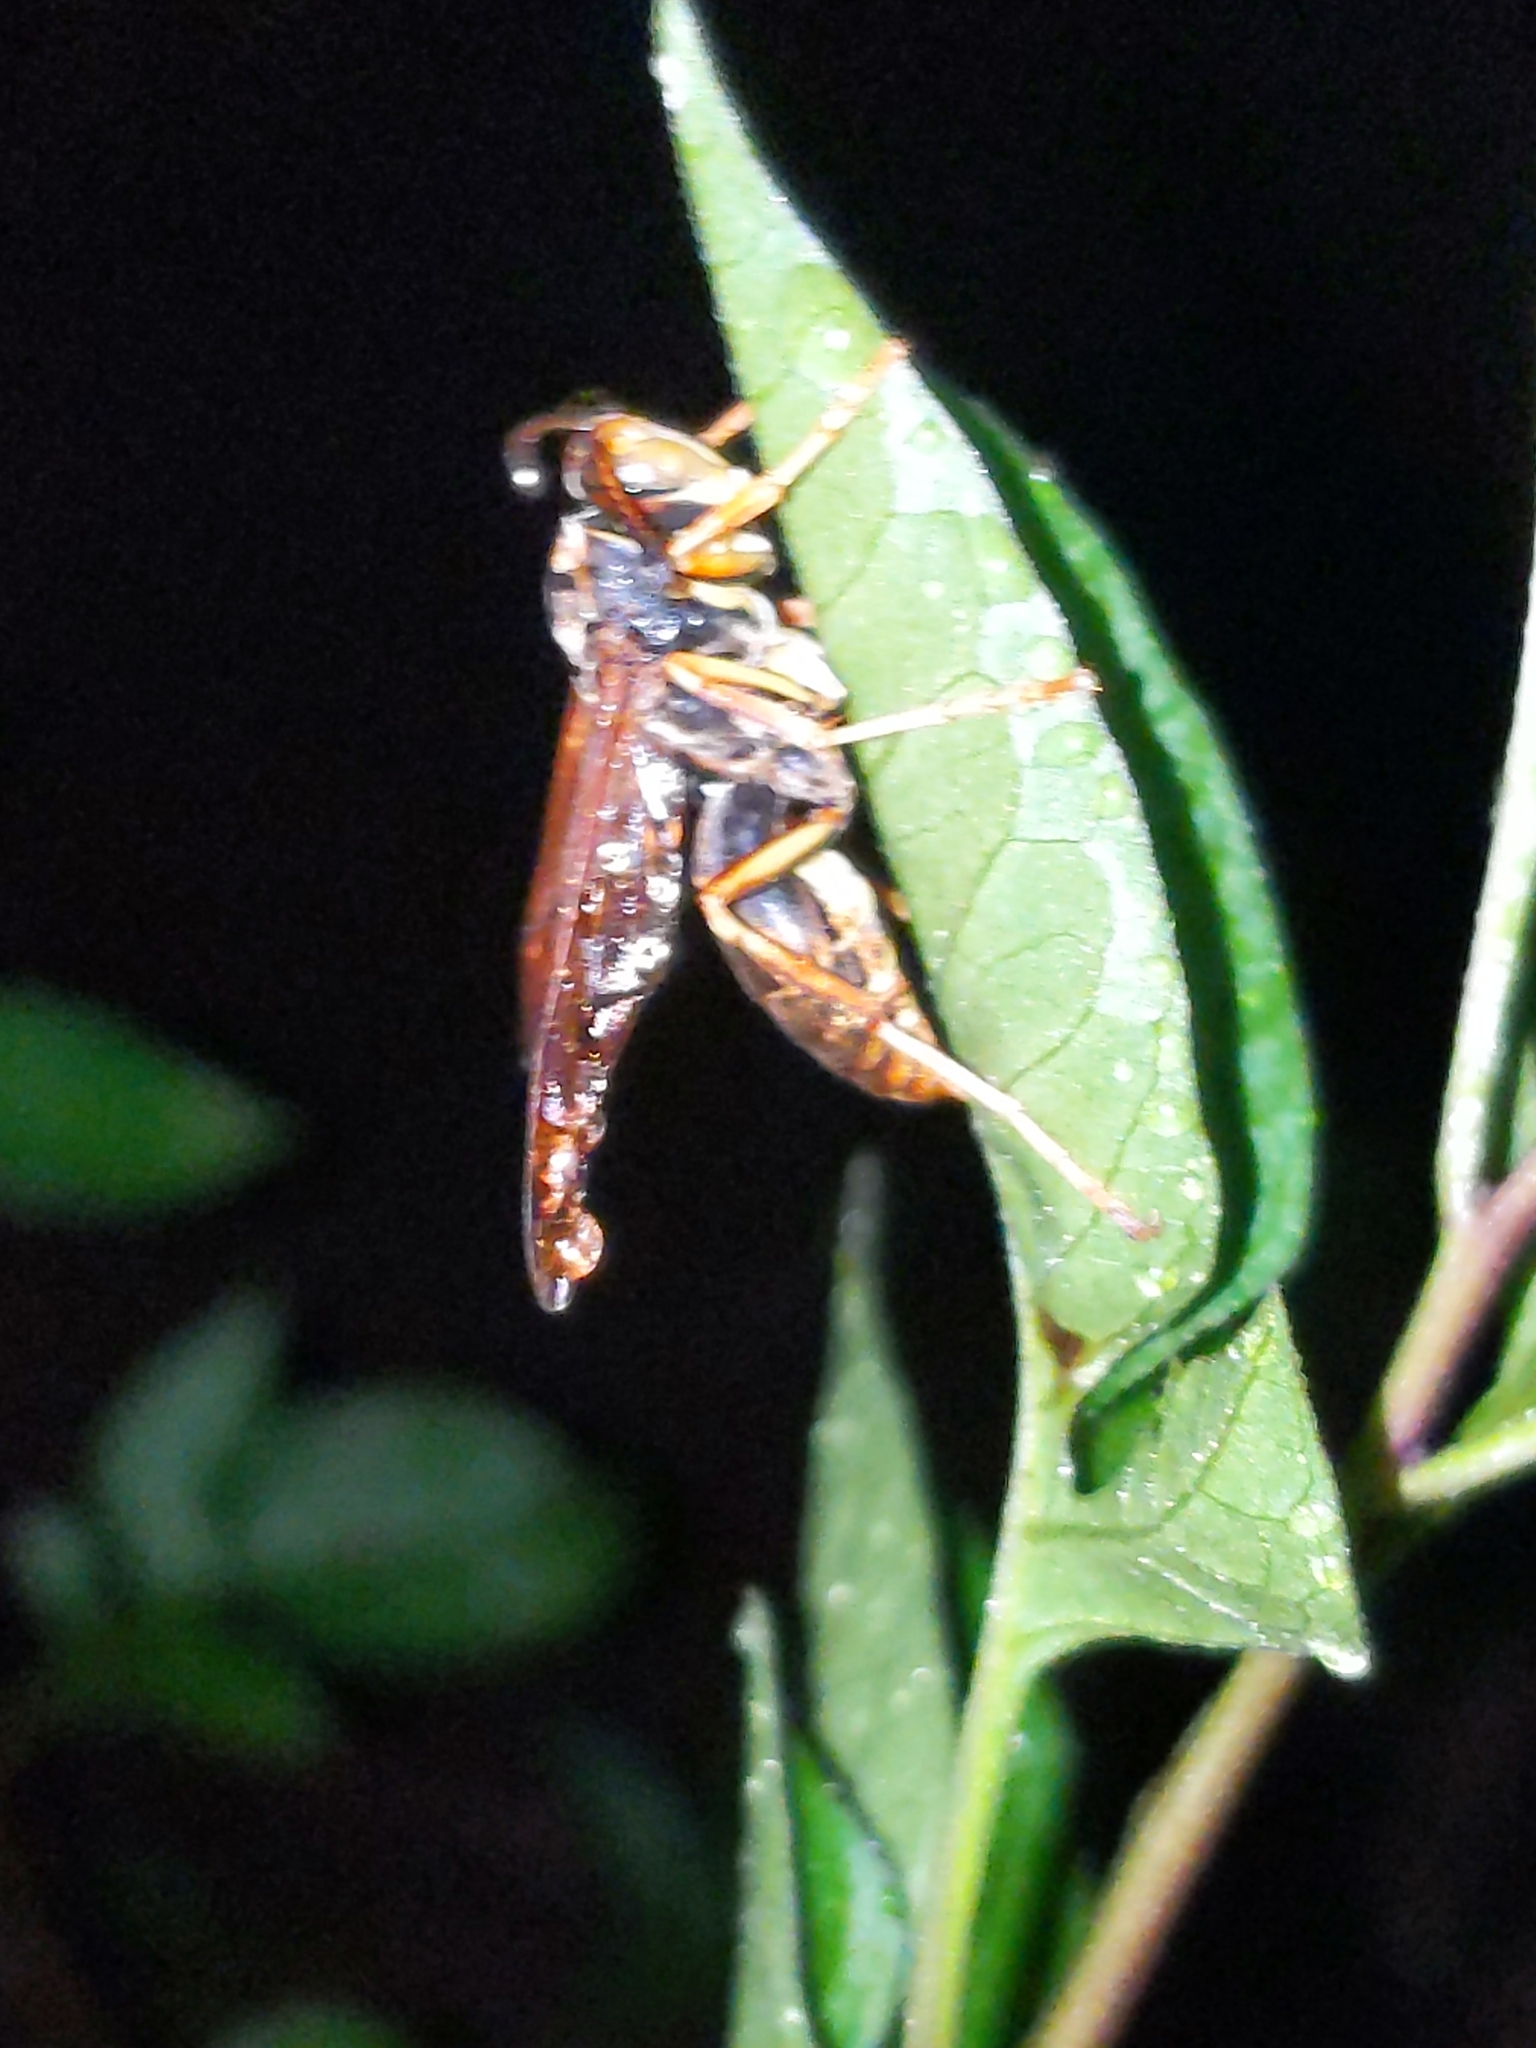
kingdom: Animalia
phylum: Arthropoda
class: Insecta
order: Hymenoptera
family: Vespidae
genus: Fuscopolistes
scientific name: Fuscopolistes
